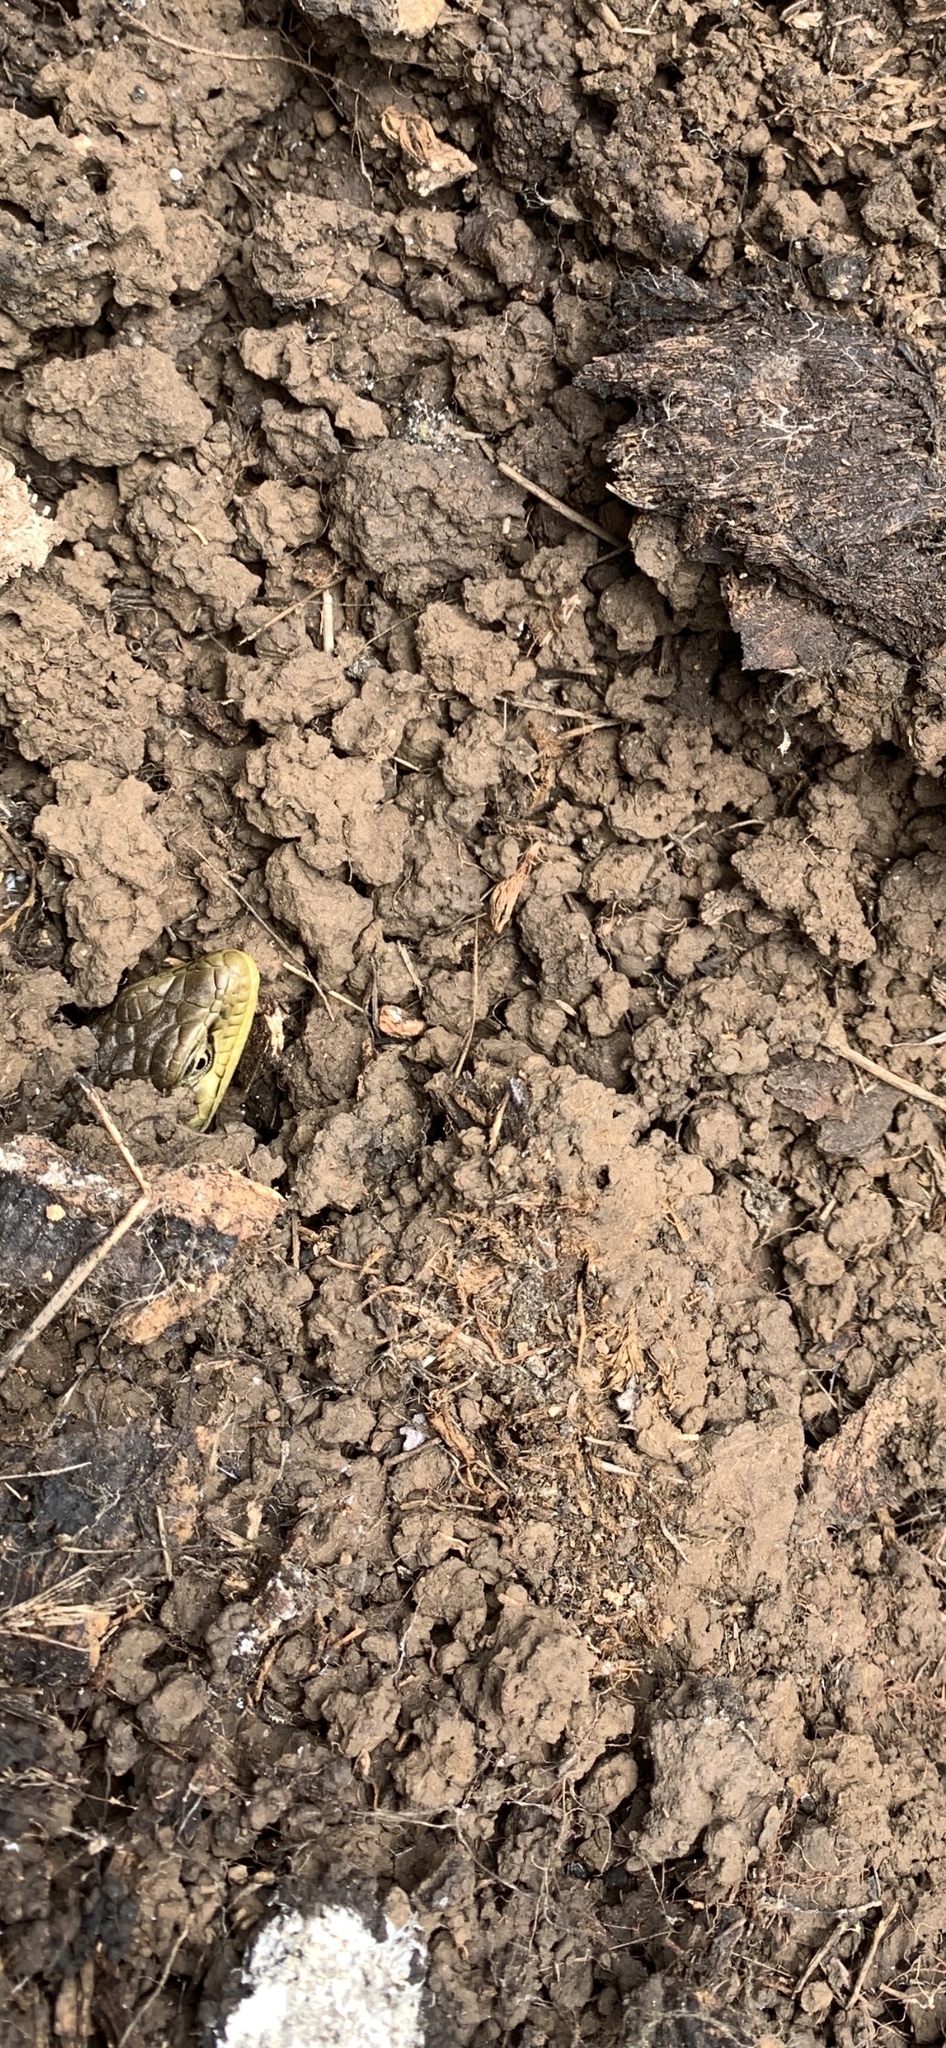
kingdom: Animalia
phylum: Chordata
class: Squamata
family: Anguidae
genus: Elgaria
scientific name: Elgaria multicarinata
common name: Southern alligator lizard
